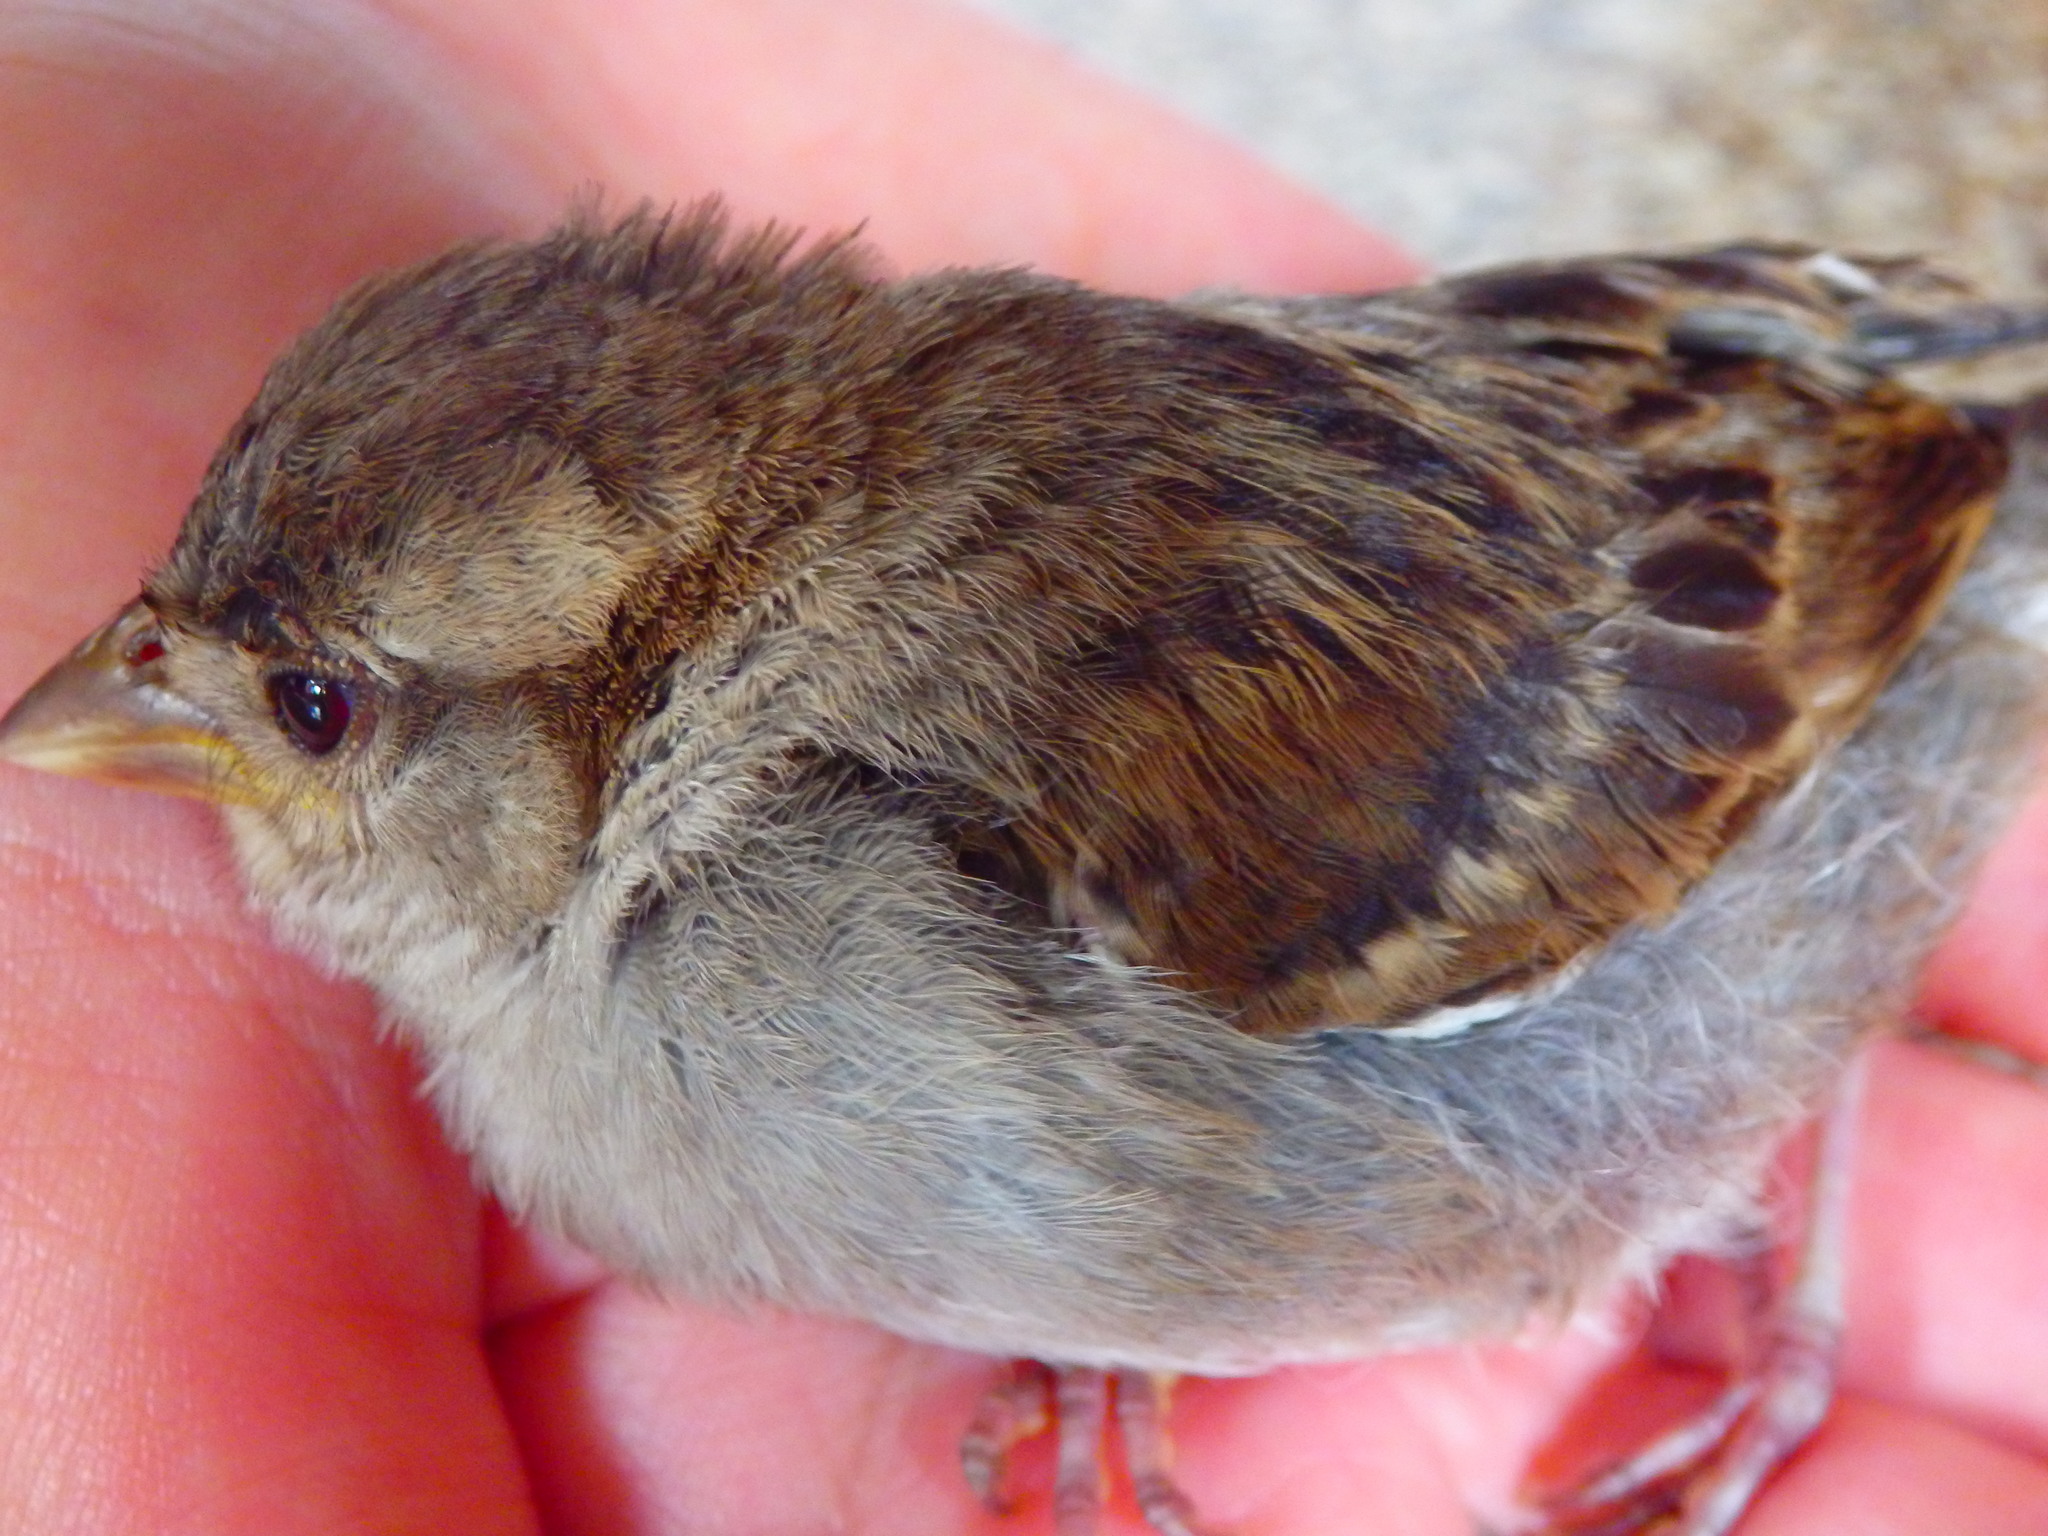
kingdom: Animalia
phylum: Chordata
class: Aves
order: Passeriformes
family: Passeridae
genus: Passer
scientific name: Passer domesticus
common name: House sparrow
